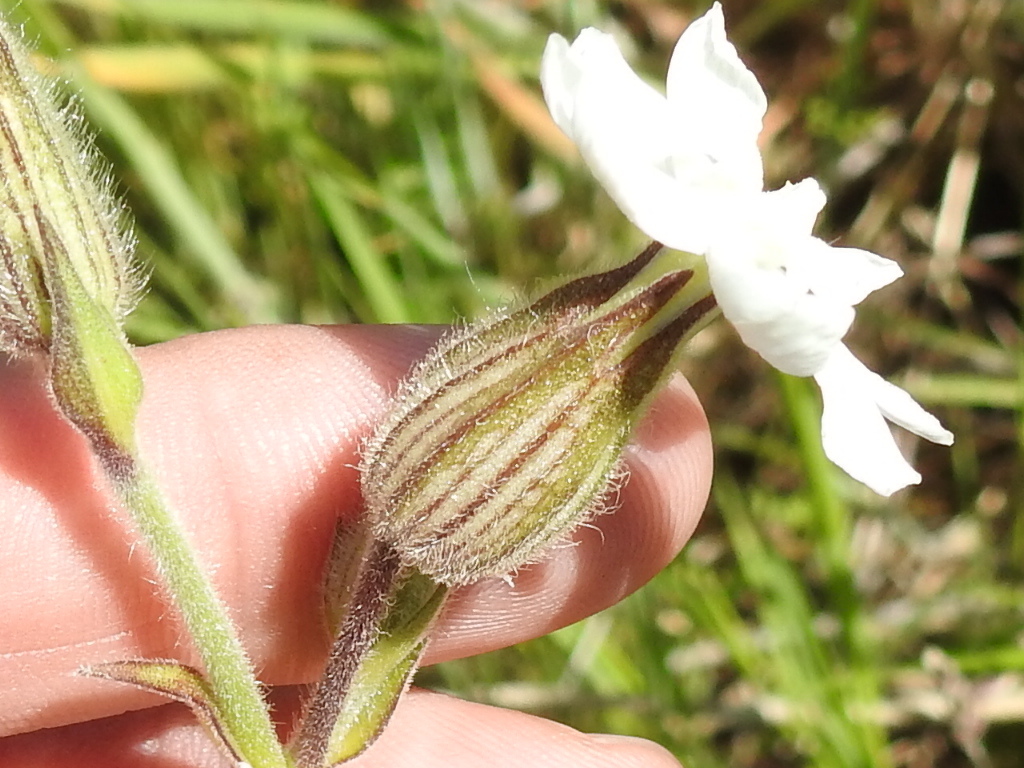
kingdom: Plantae
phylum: Tracheophyta
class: Magnoliopsida
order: Caryophyllales
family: Caryophyllaceae
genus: Silene
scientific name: Silene latifolia
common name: White campion
